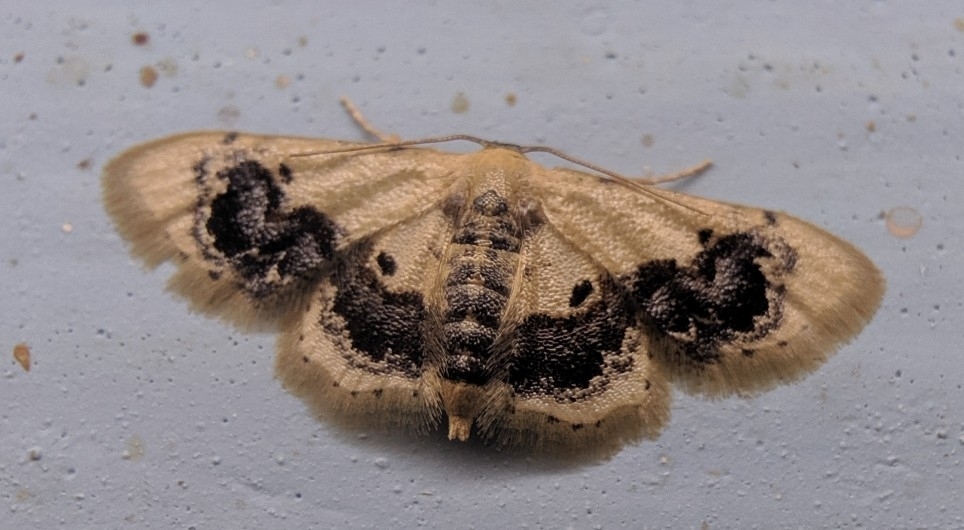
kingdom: Animalia
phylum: Arthropoda
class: Insecta
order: Lepidoptera
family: Geometridae
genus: Idaea
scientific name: Idaea macrospila
